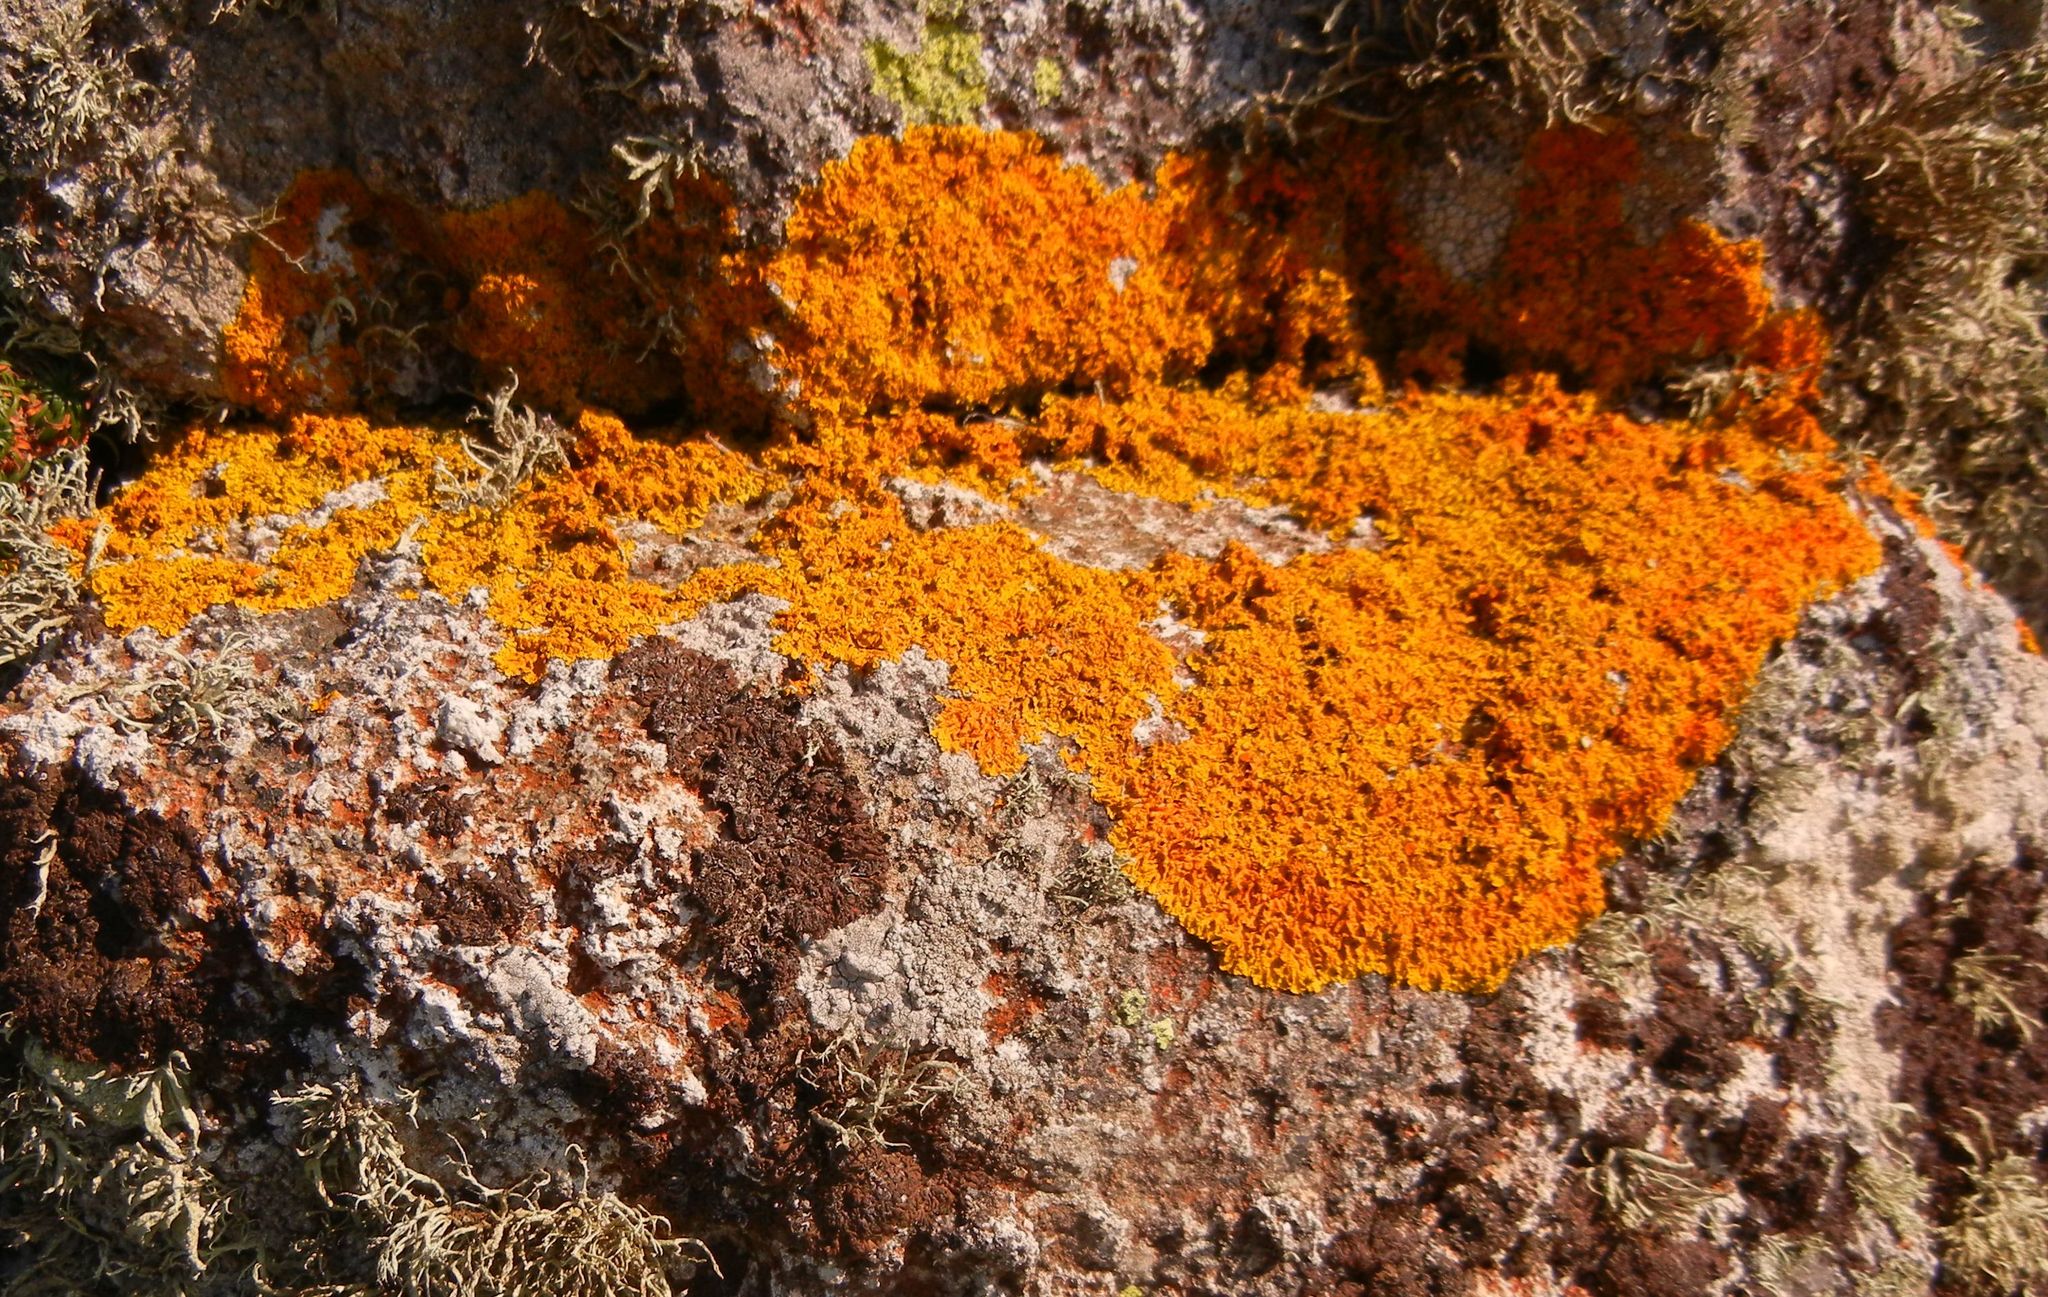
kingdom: Fungi
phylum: Ascomycota
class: Lecanoromycetes
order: Teloschistales
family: Teloschistaceae
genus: Xanthoria
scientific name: Xanthoria
